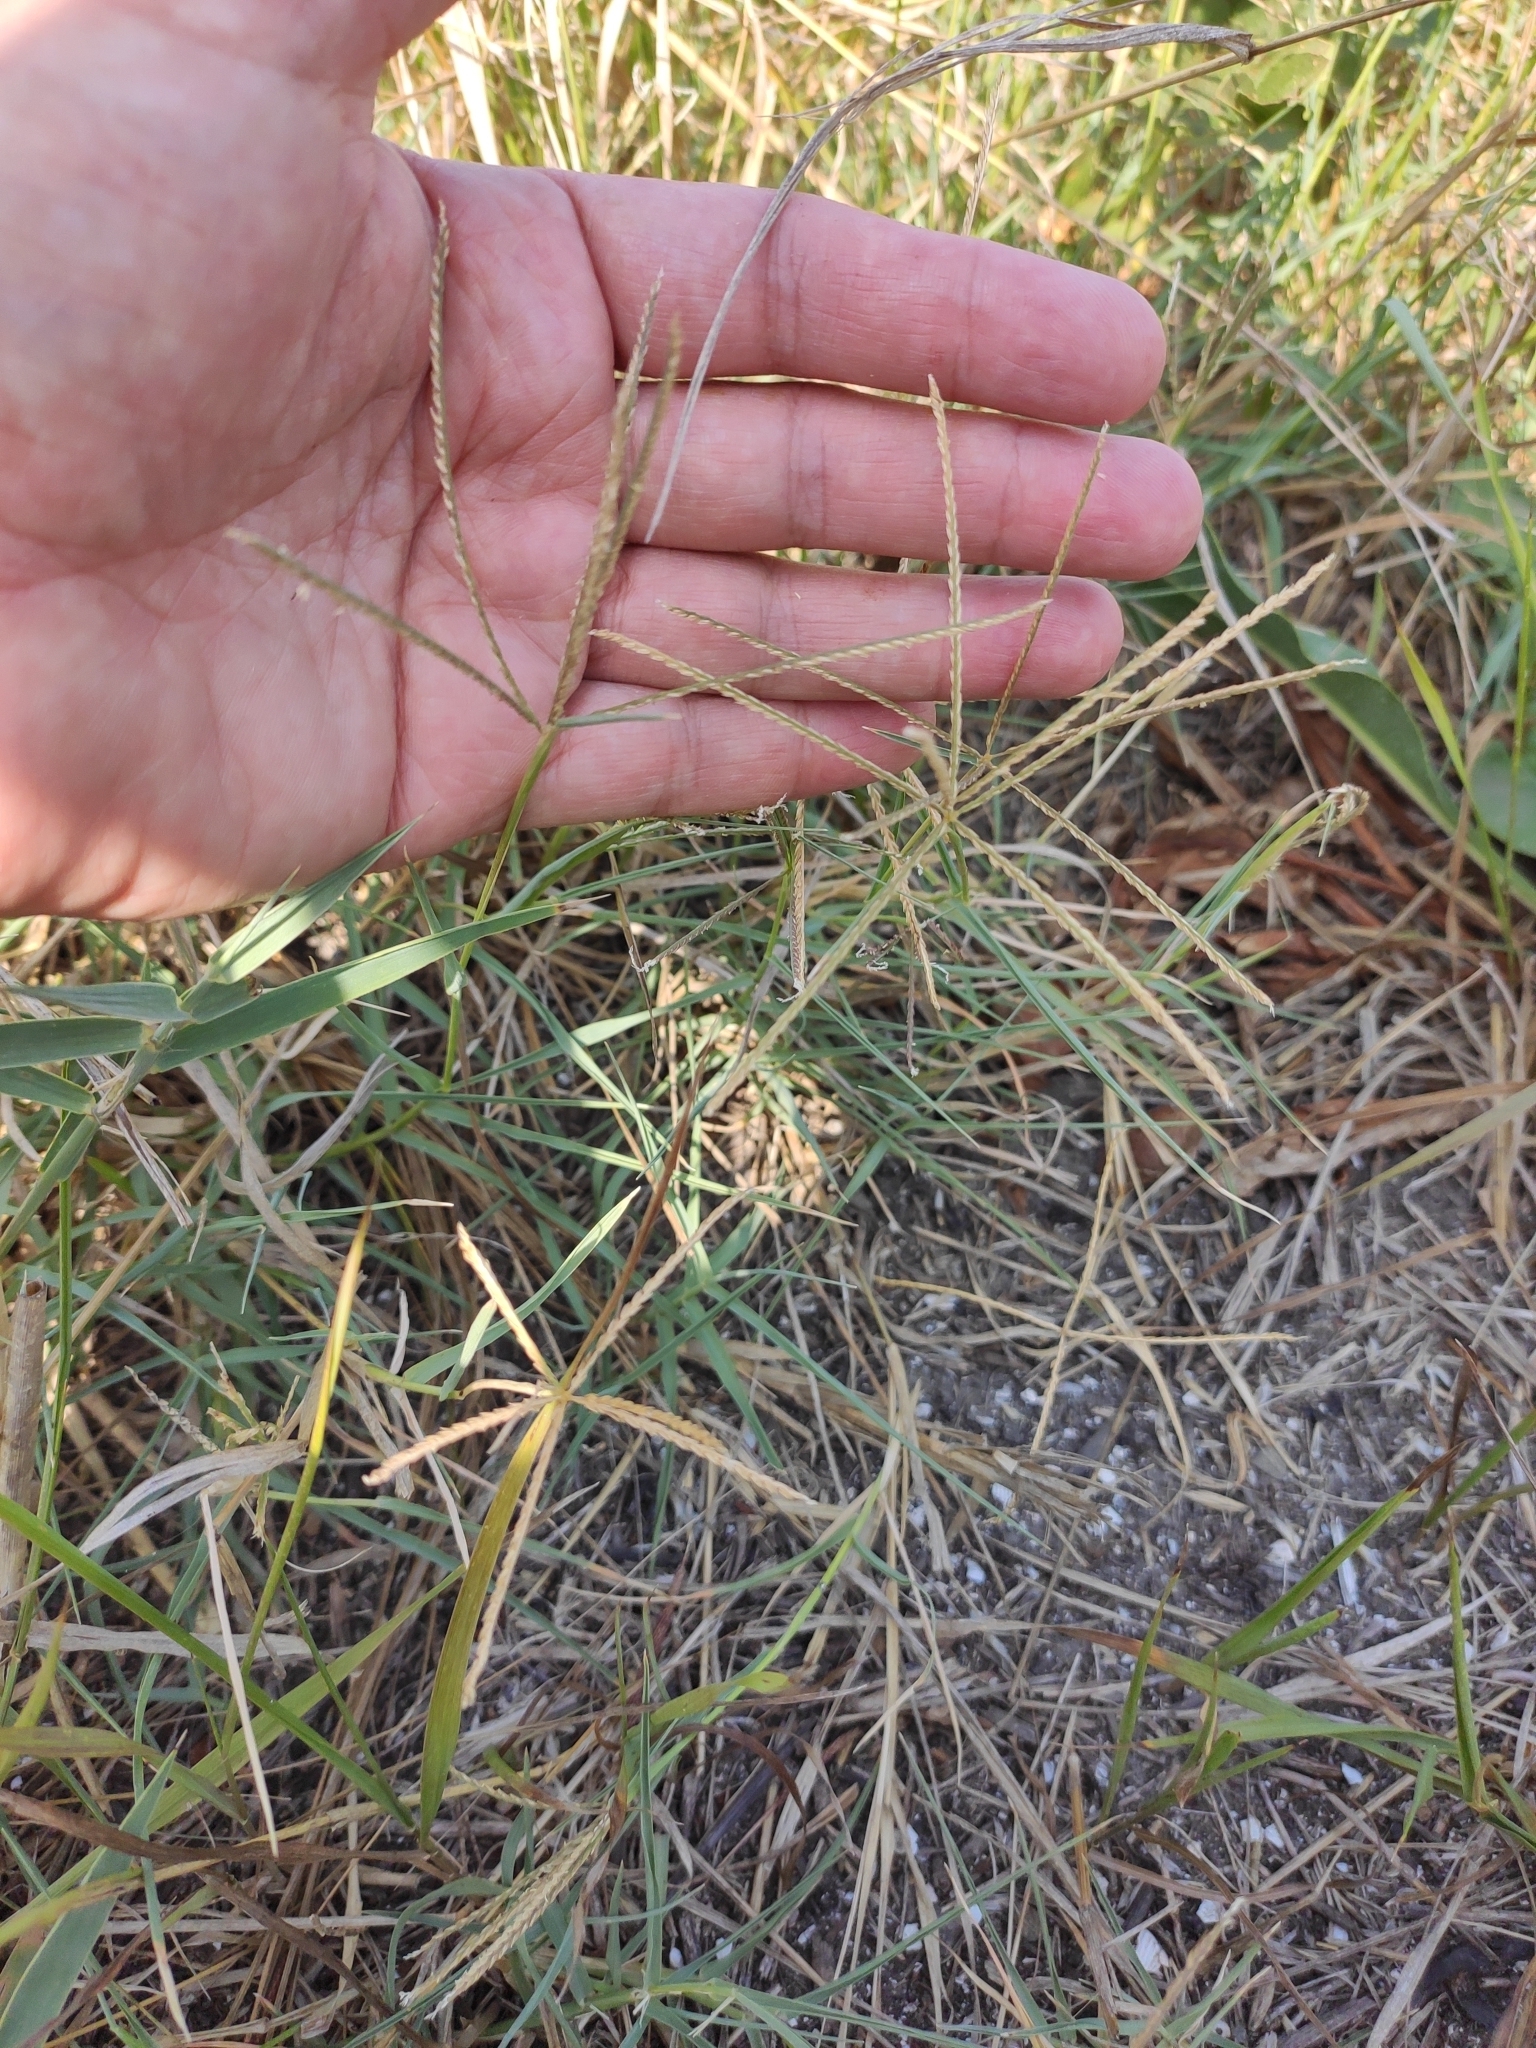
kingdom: Plantae
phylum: Tracheophyta
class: Liliopsida
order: Poales
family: Poaceae
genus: Aeluropus
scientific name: Aeluropus littoralis
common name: Indian walnut
